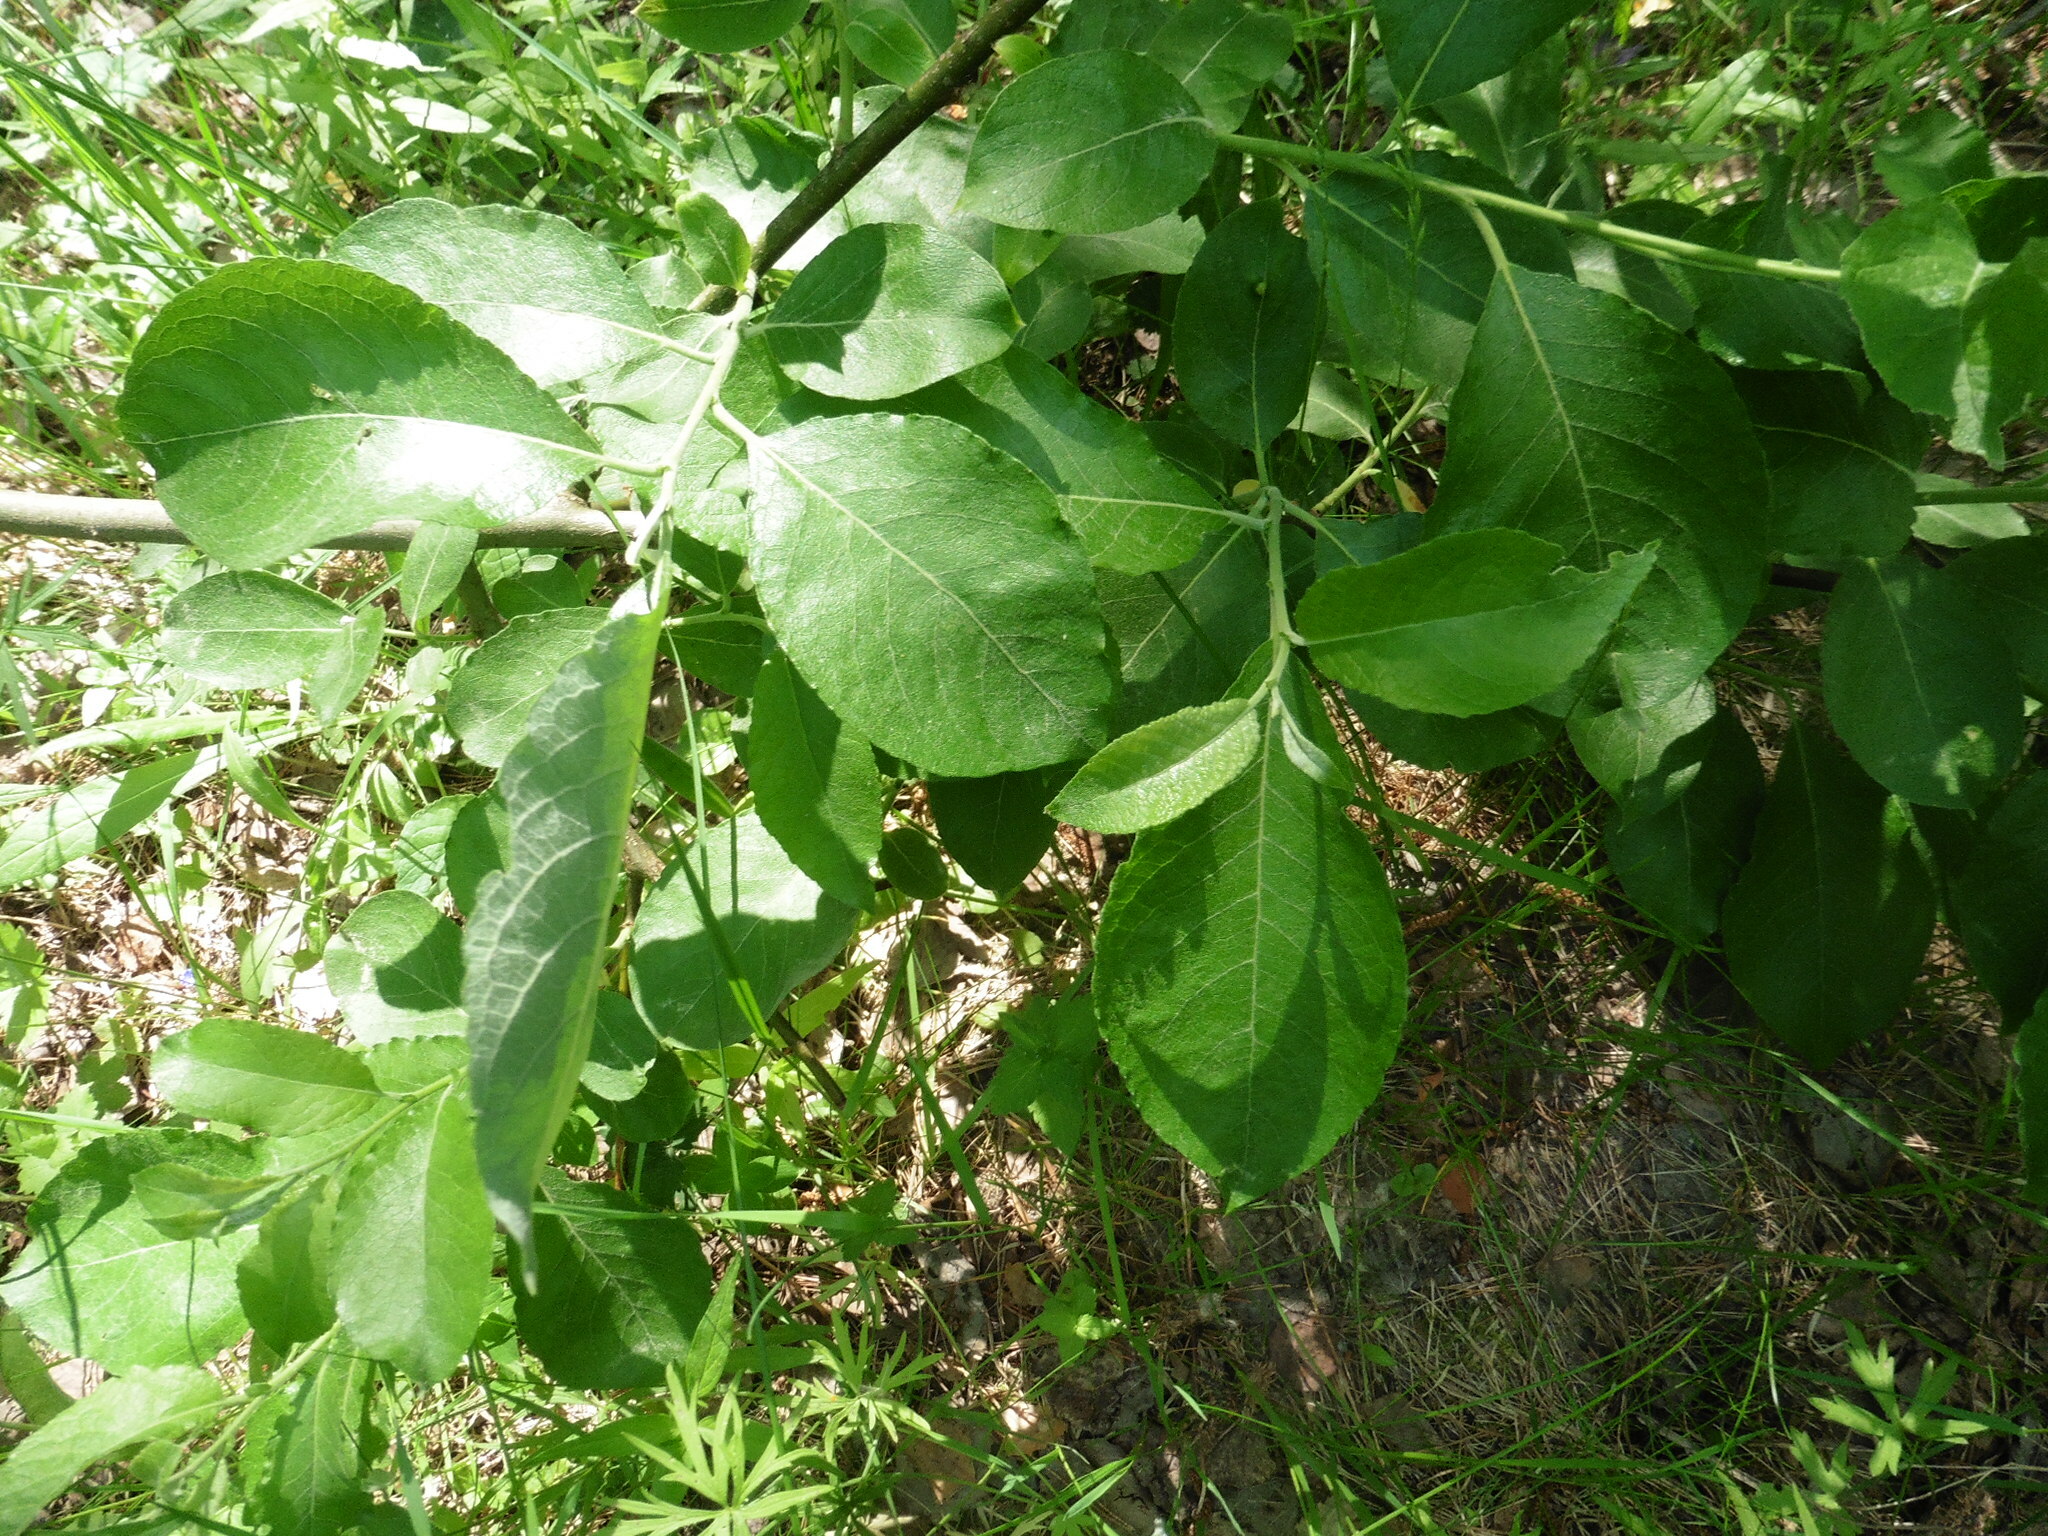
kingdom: Plantae
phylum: Tracheophyta
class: Magnoliopsida
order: Malpighiales
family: Salicaceae
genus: Salix
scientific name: Salix caprea
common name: Goat willow
